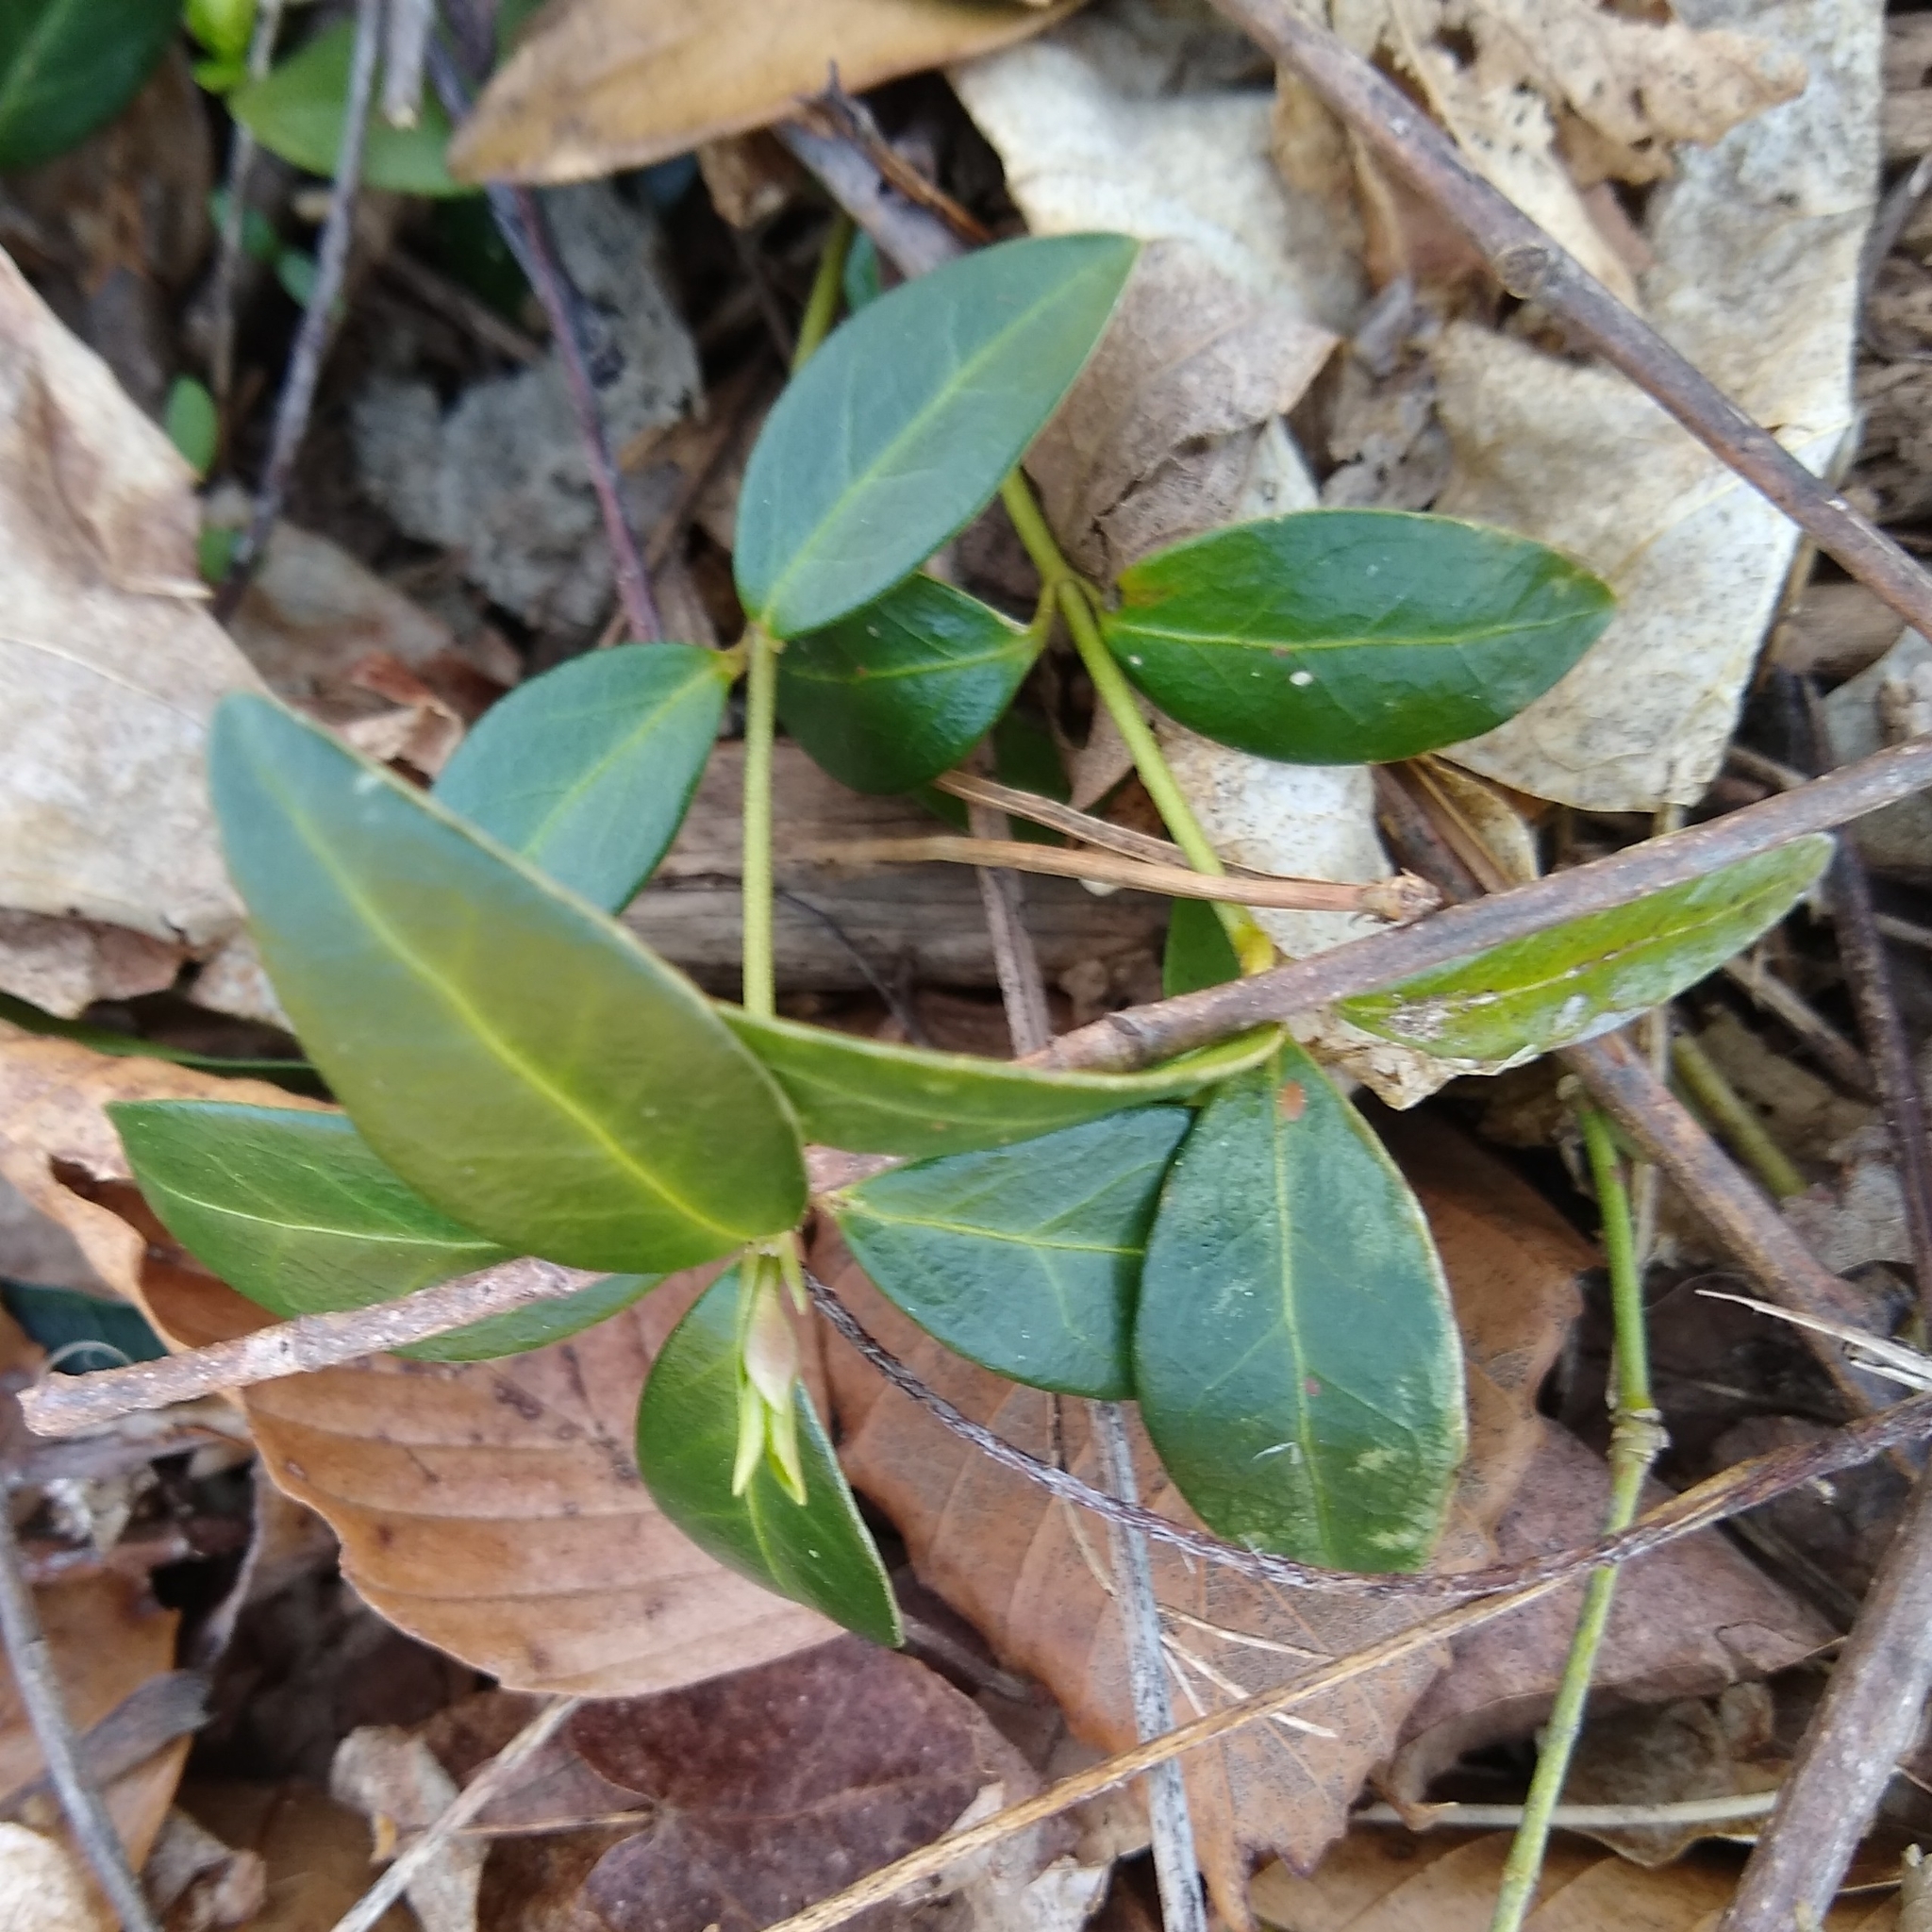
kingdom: Plantae
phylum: Tracheophyta
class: Magnoliopsida
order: Gentianales
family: Apocynaceae
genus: Vinca
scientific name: Vinca minor
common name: Lesser periwinkle
